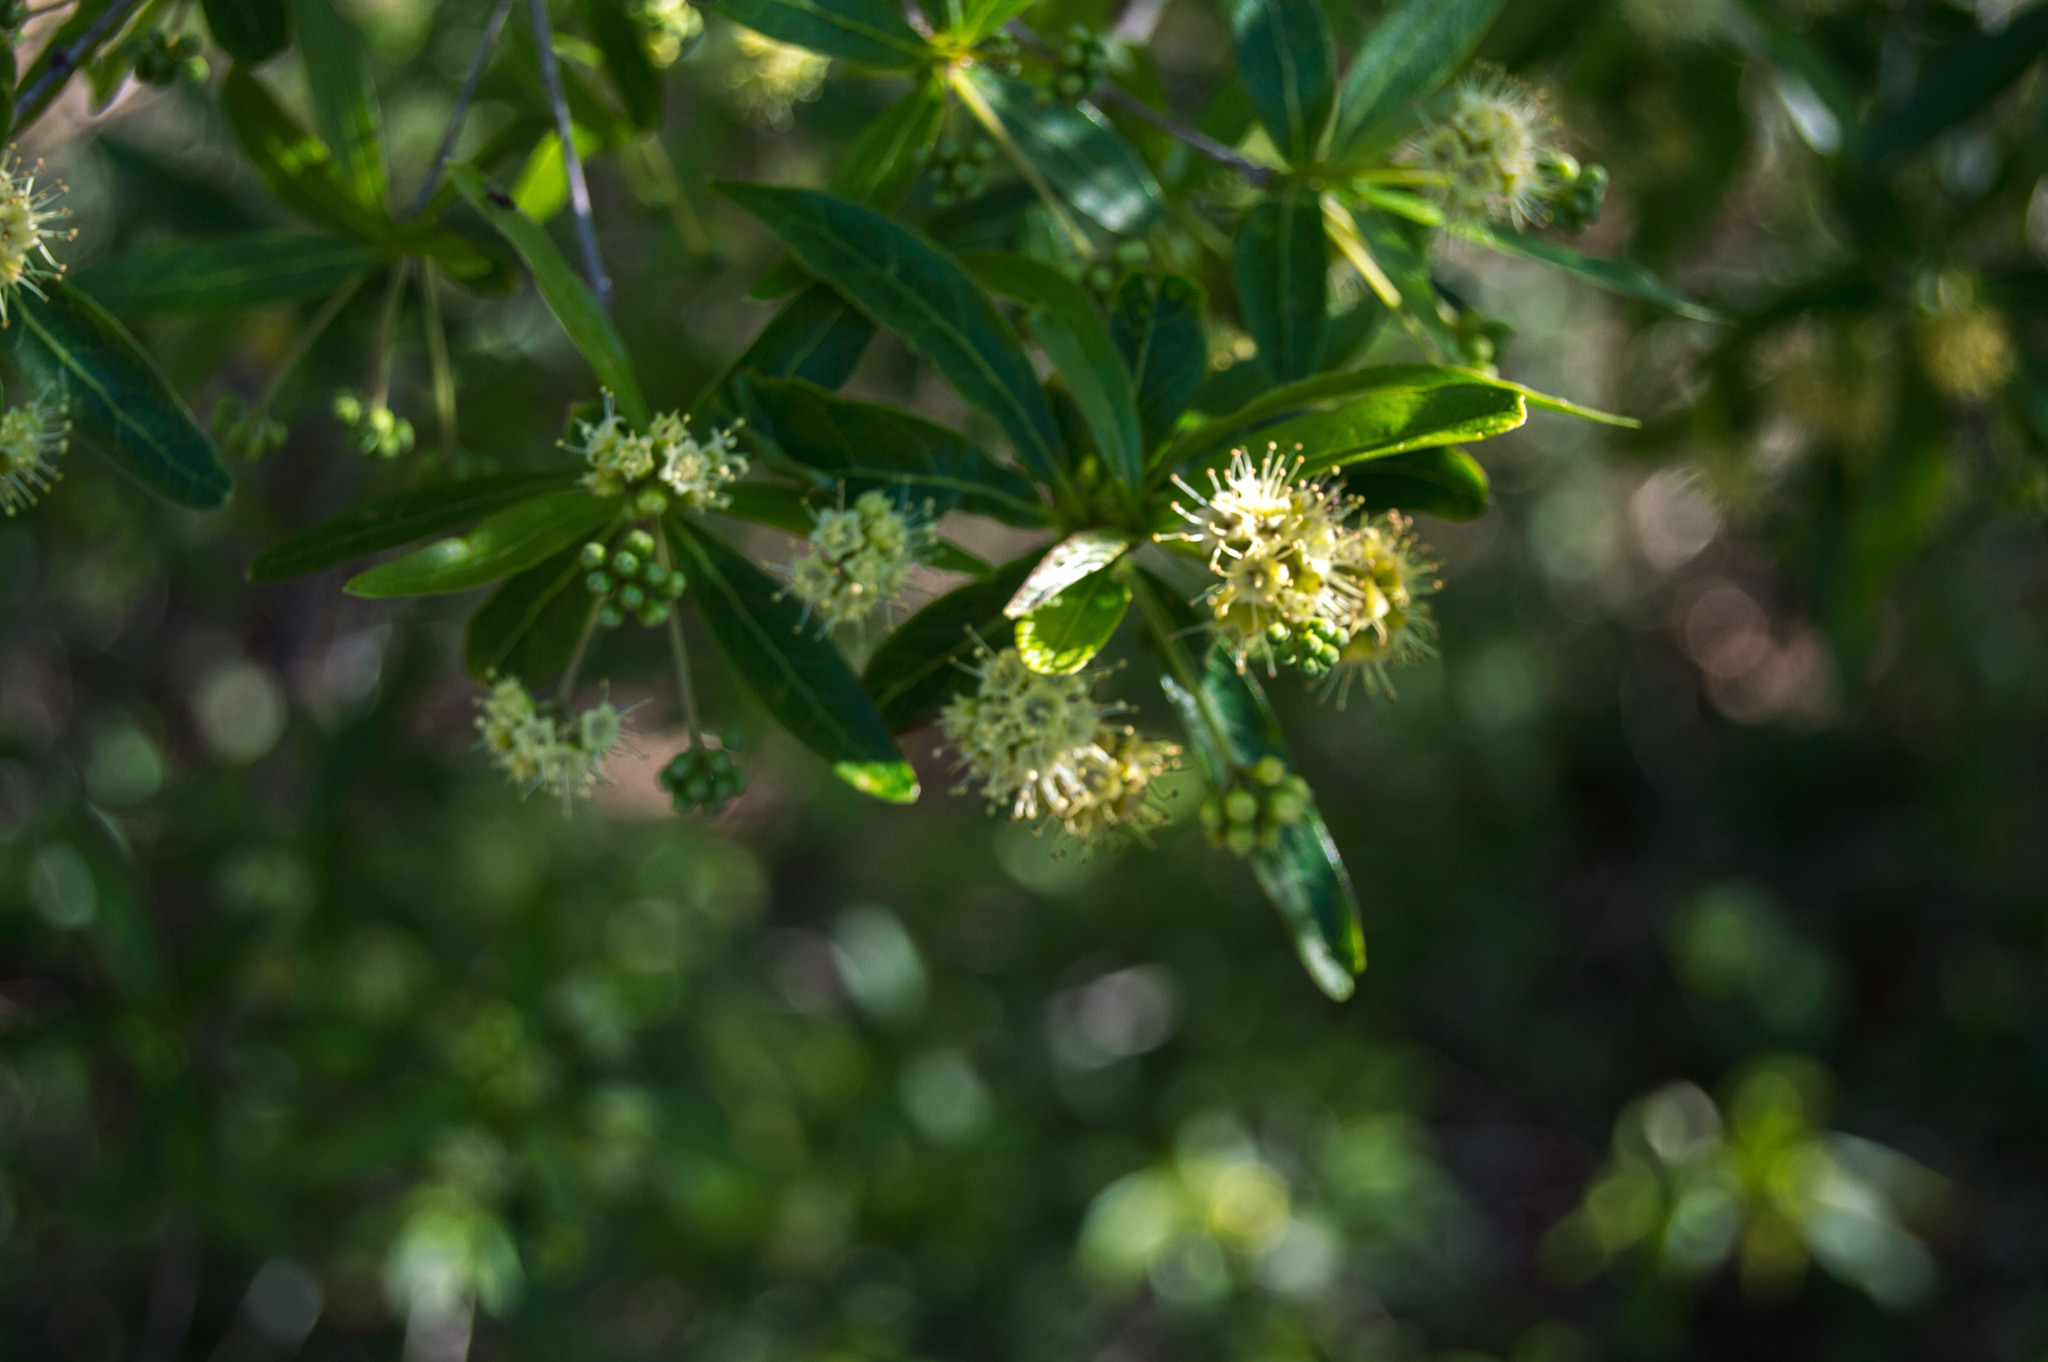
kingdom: Plantae
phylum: Tracheophyta
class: Magnoliopsida
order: Myrtales
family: Combretaceae
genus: Terminalia
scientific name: Terminalia australis
